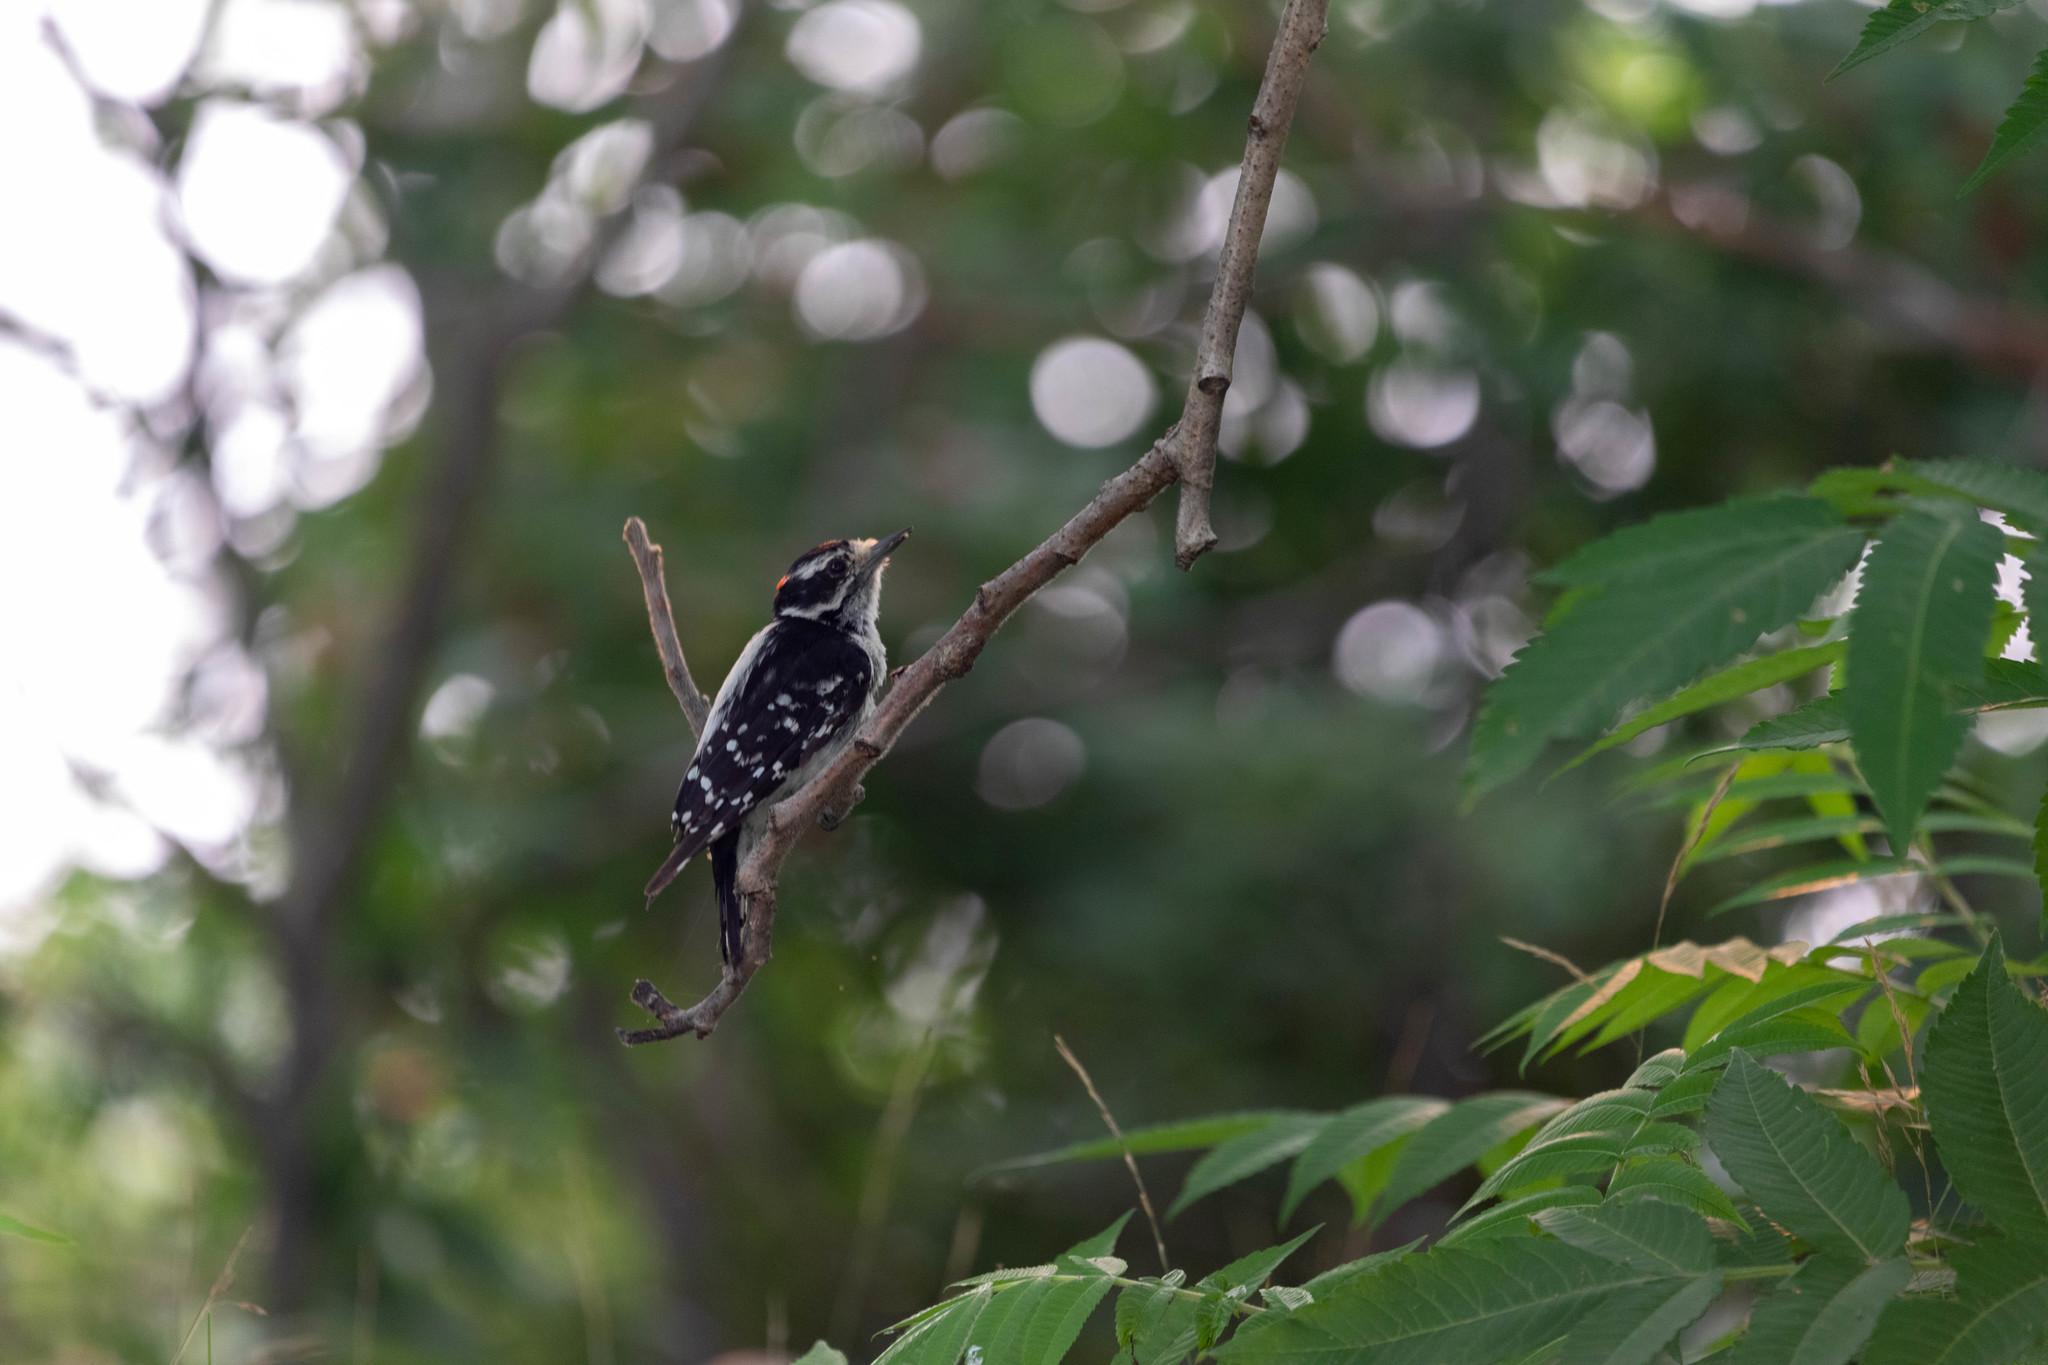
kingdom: Animalia
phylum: Chordata
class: Aves
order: Piciformes
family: Picidae
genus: Dryobates
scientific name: Dryobates pubescens
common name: Downy woodpecker
